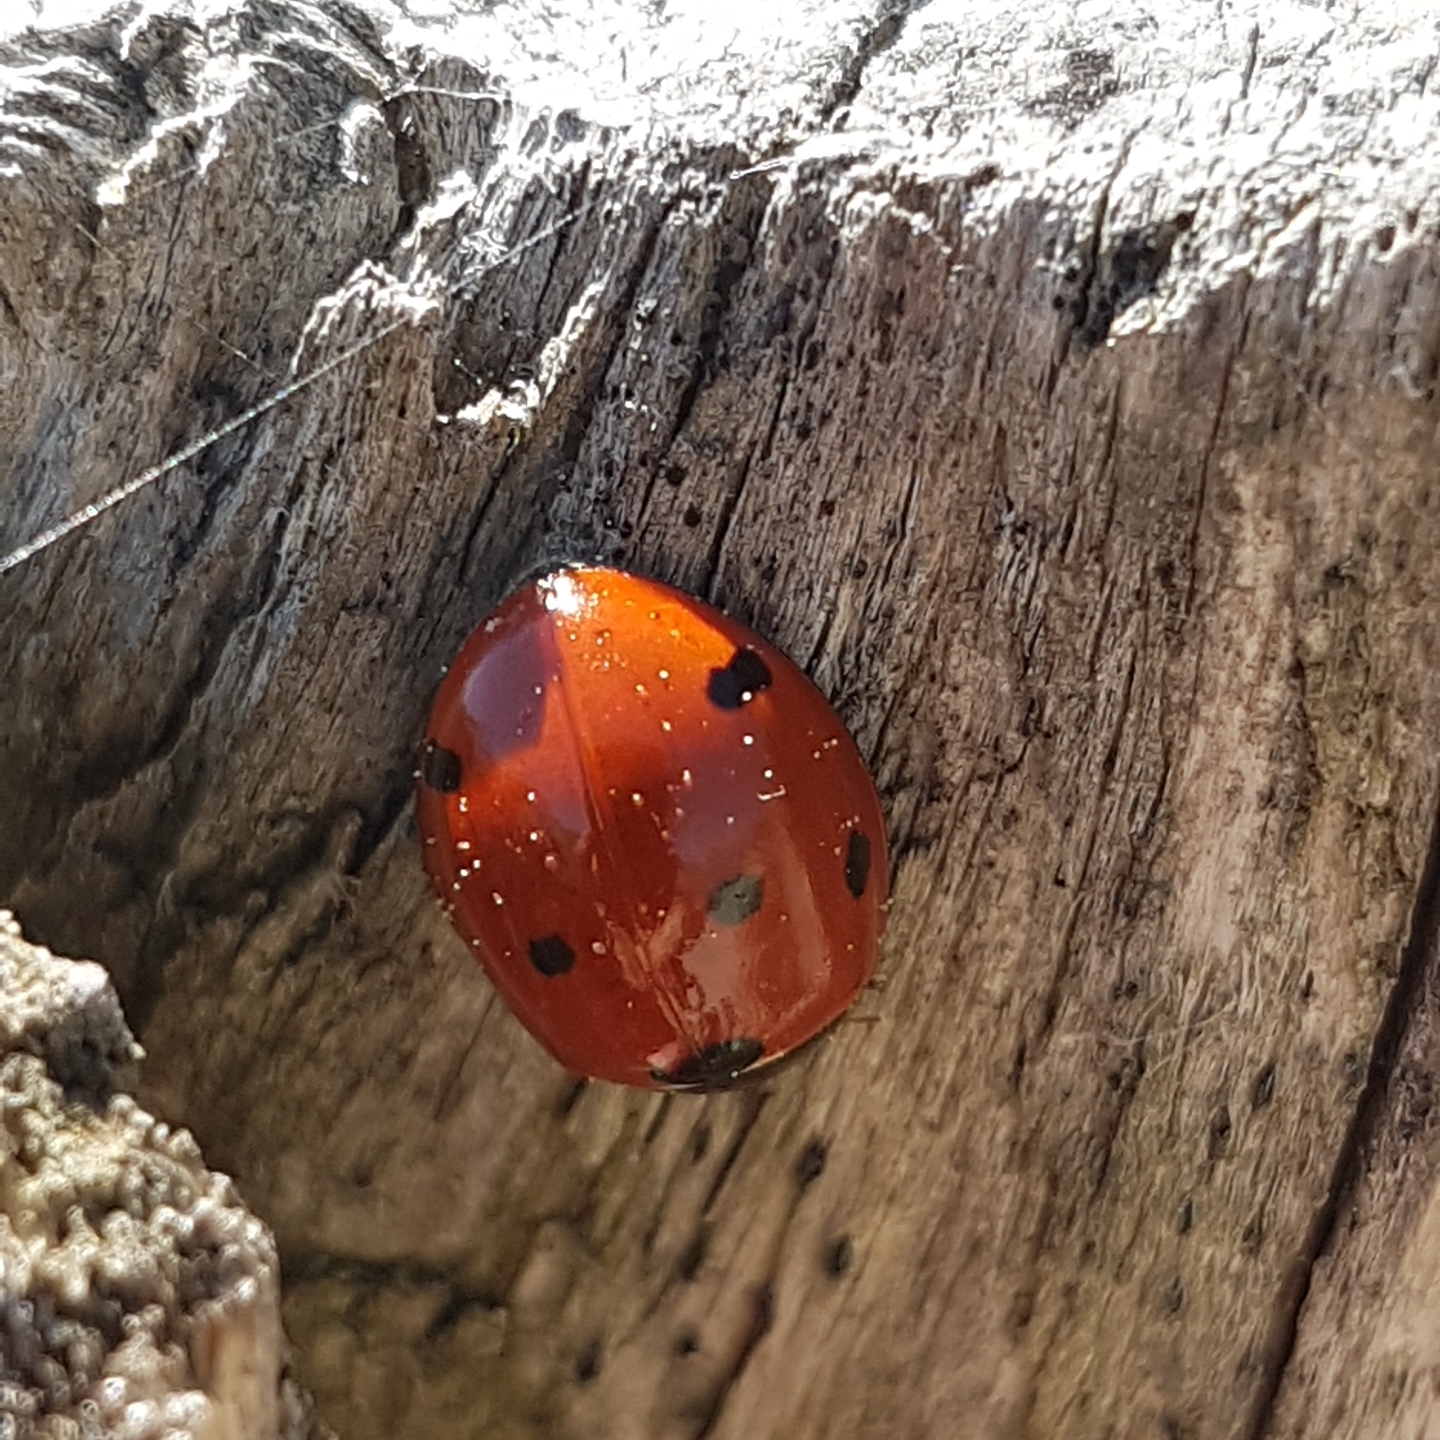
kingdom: Animalia
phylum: Arthropoda
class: Insecta
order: Coleoptera
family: Coccinellidae
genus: Coccinella
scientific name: Coccinella septempunctata
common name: Sevenspotted lady beetle
